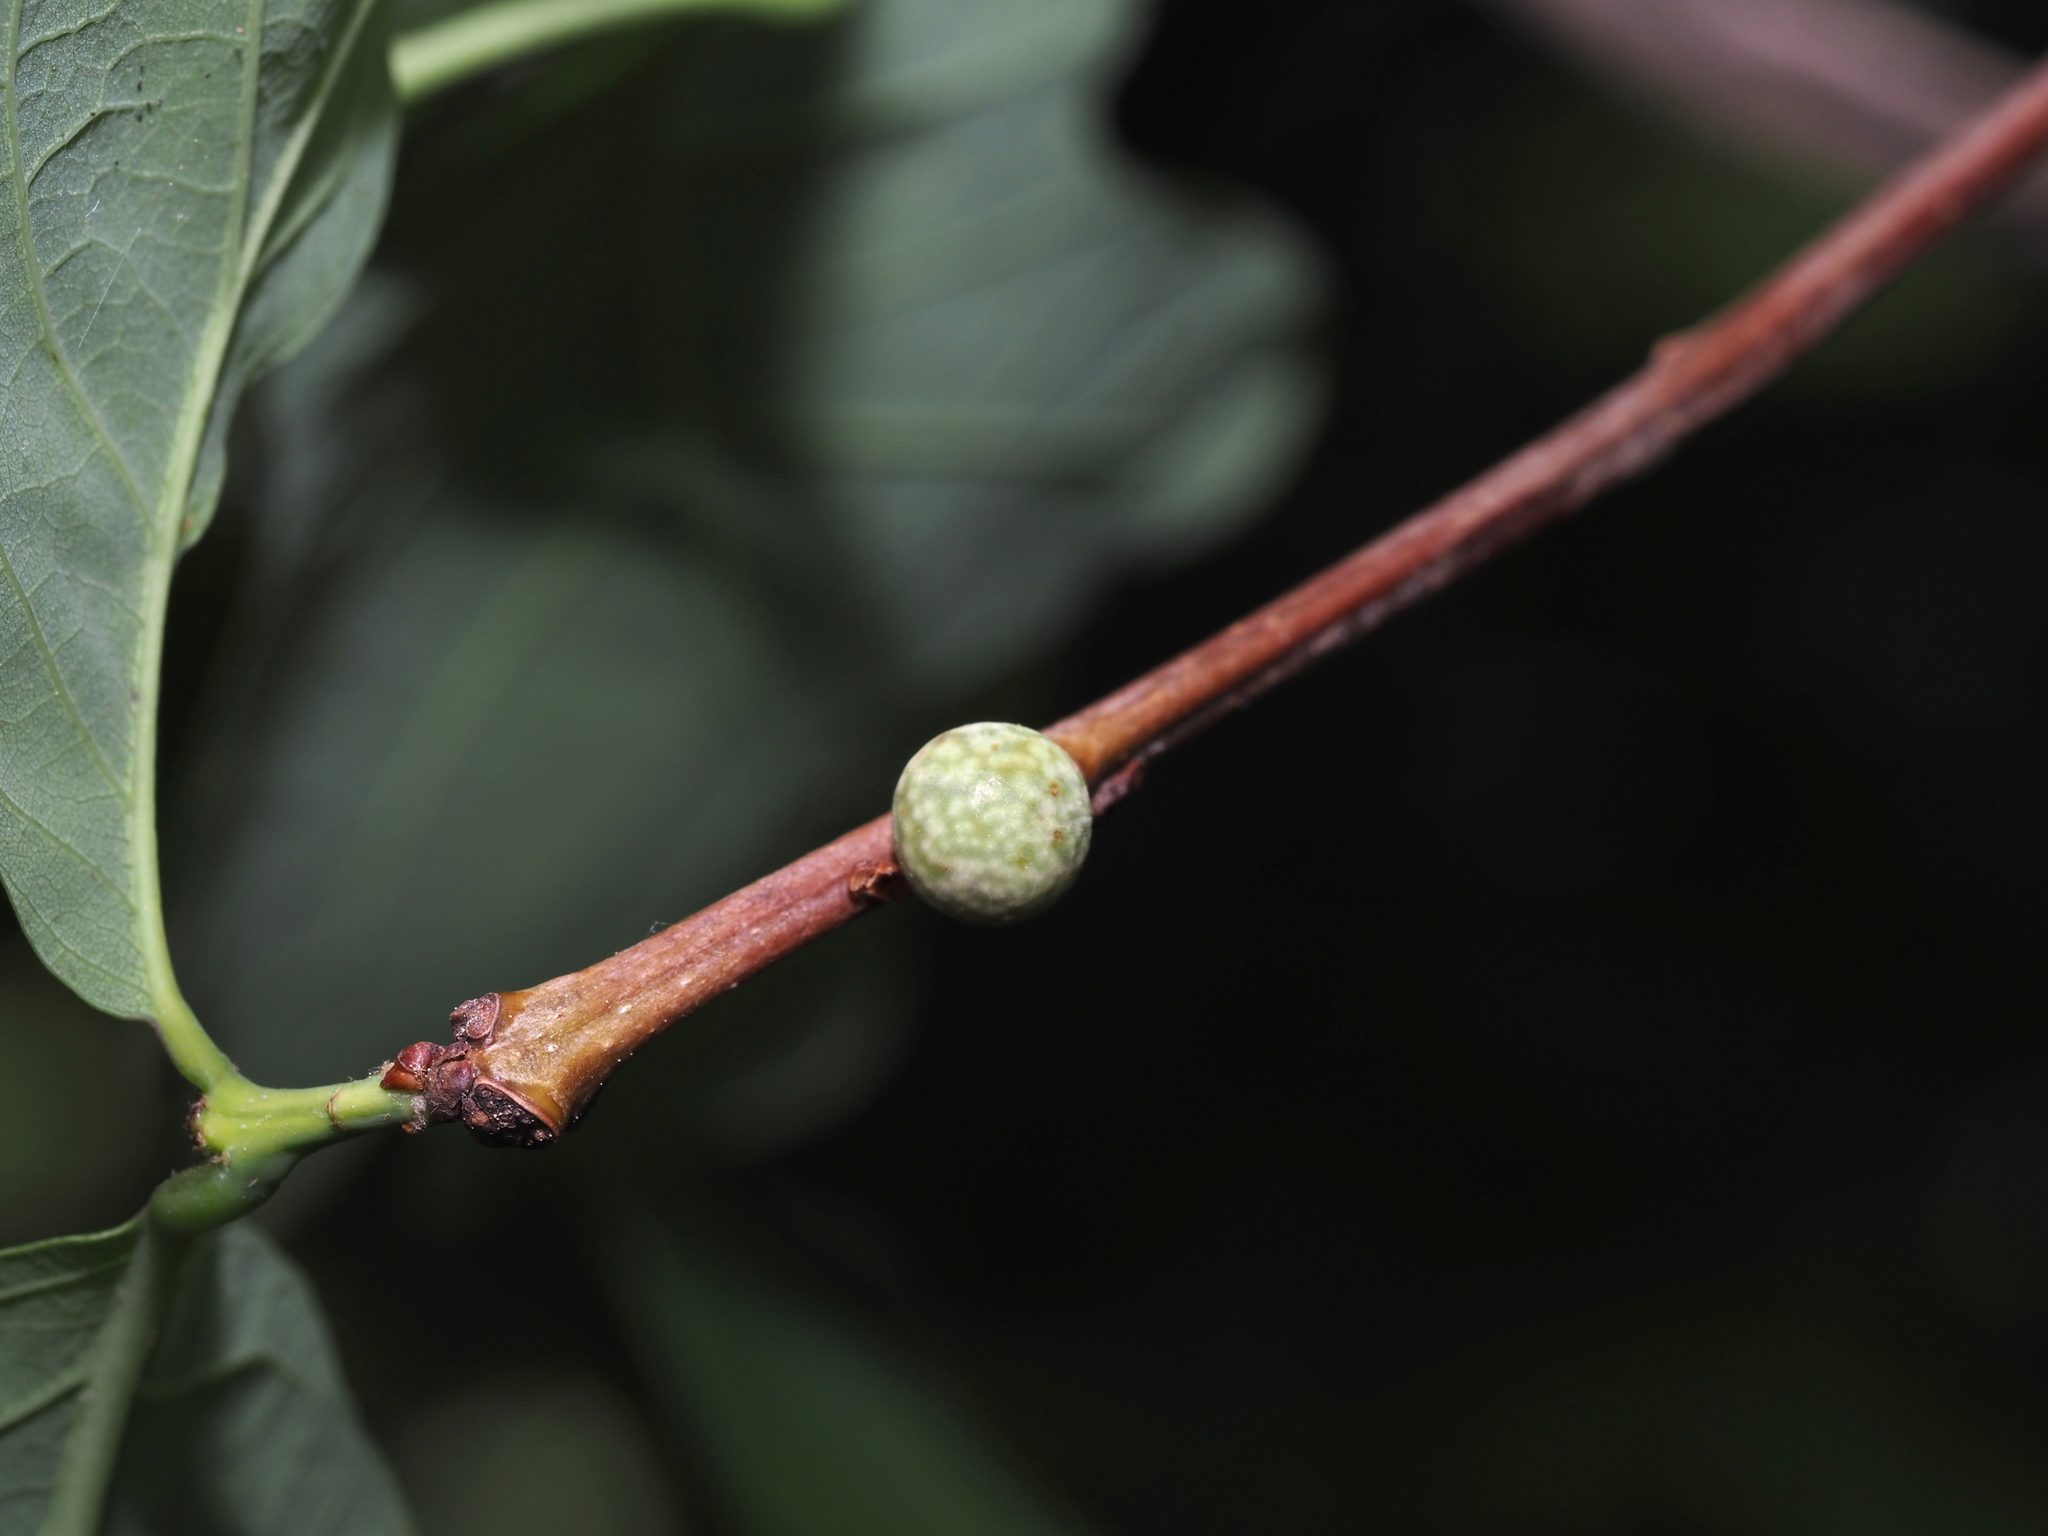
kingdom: Animalia
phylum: Arthropoda
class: Insecta
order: Hymenoptera
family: Cynipidae
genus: Andricus
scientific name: Andricus
